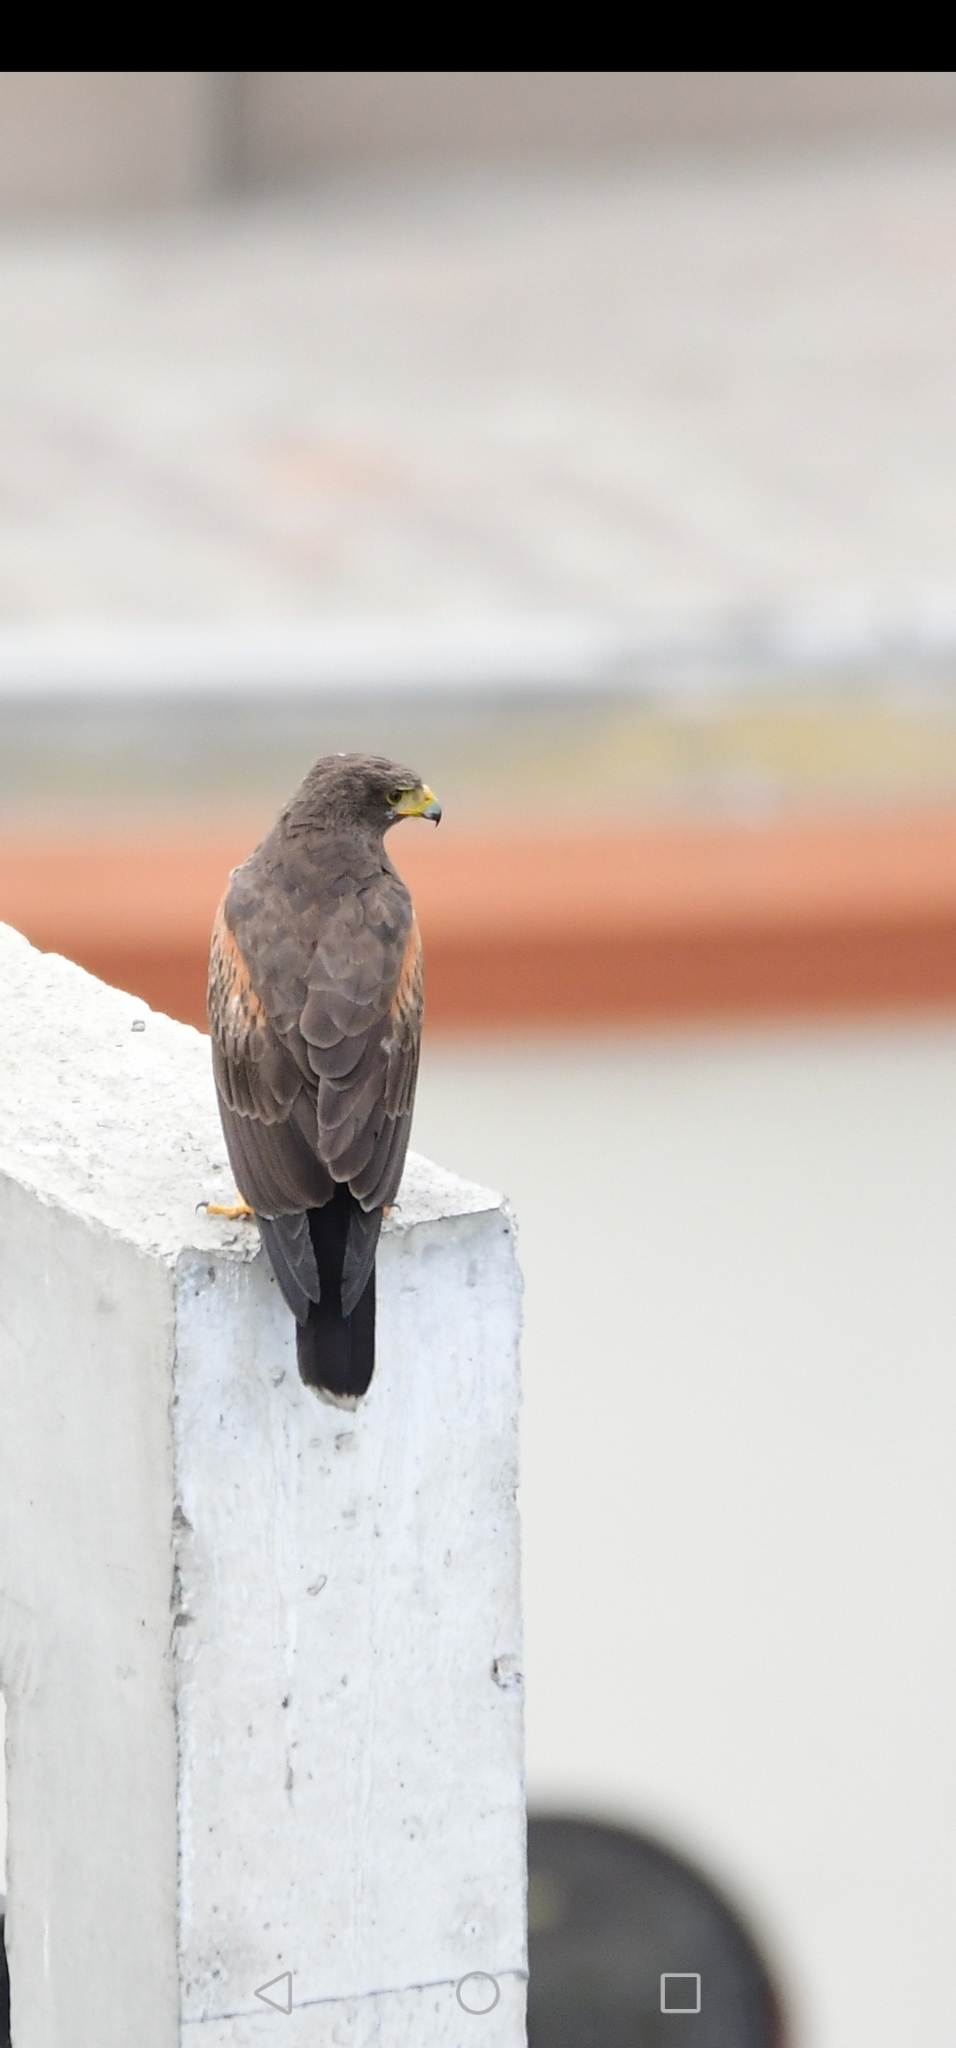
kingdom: Animalia
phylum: Chordata
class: Aves
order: Accipitriformes
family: Accipitridae
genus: Parabuteo
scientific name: Parabuteo unicinctus
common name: Harris's hawk
